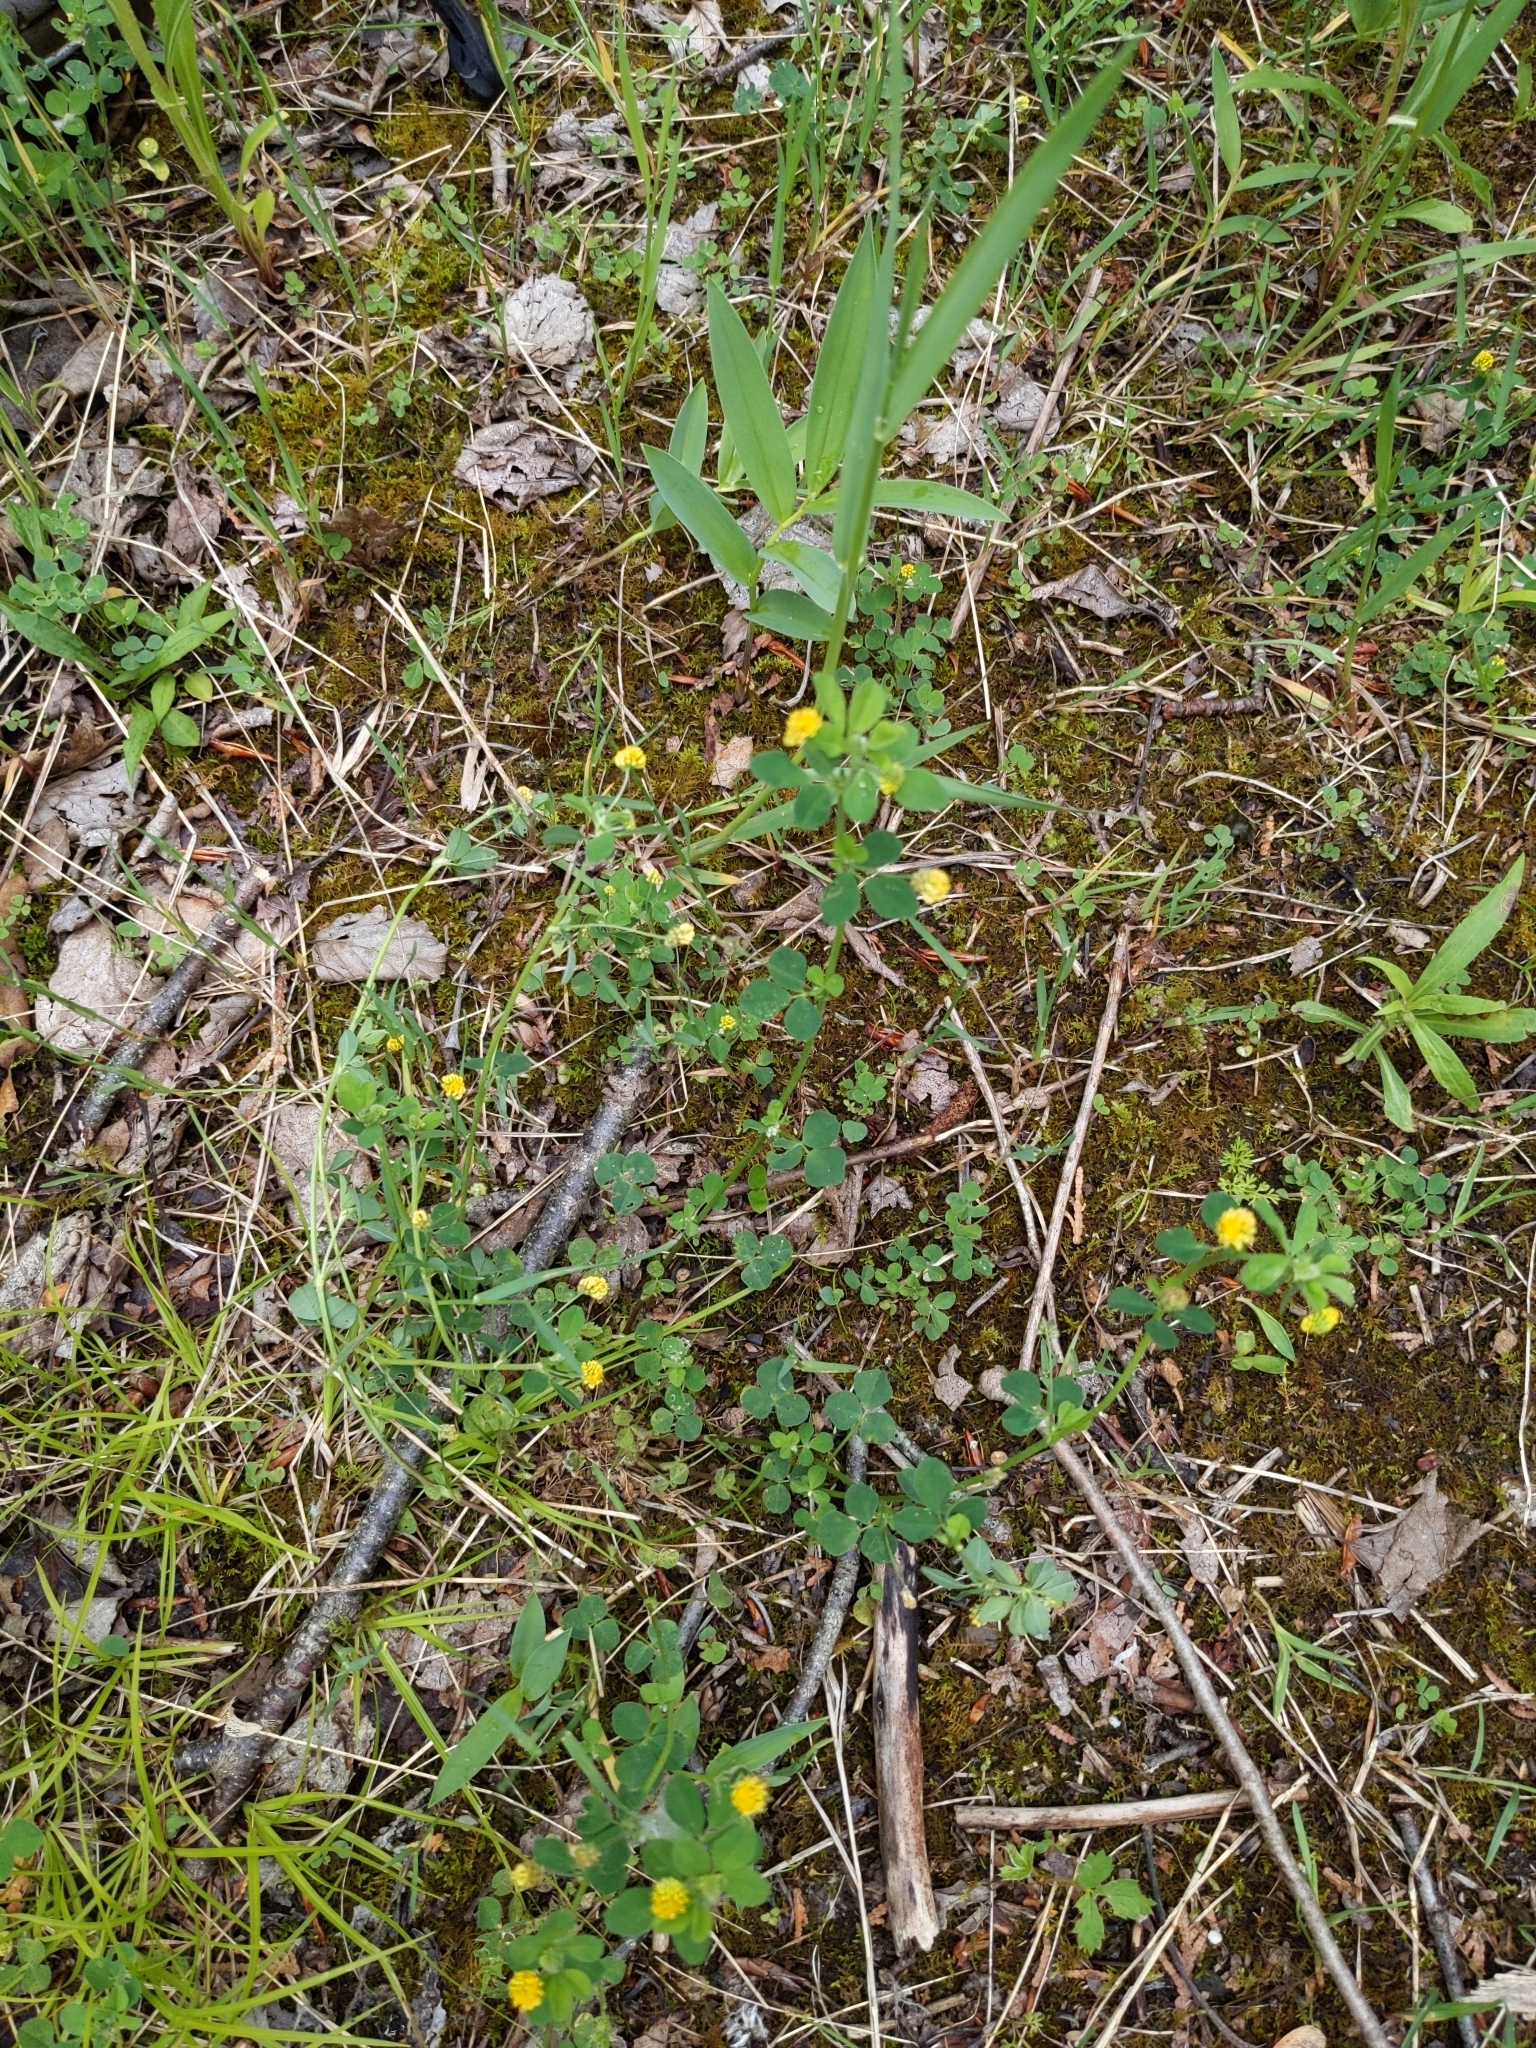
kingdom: Plantae
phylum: Tracheophyta
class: Magnoliopsida
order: Fabales
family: Fabaceae
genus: Medicago
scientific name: Medicago lupulina
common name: Black medick
